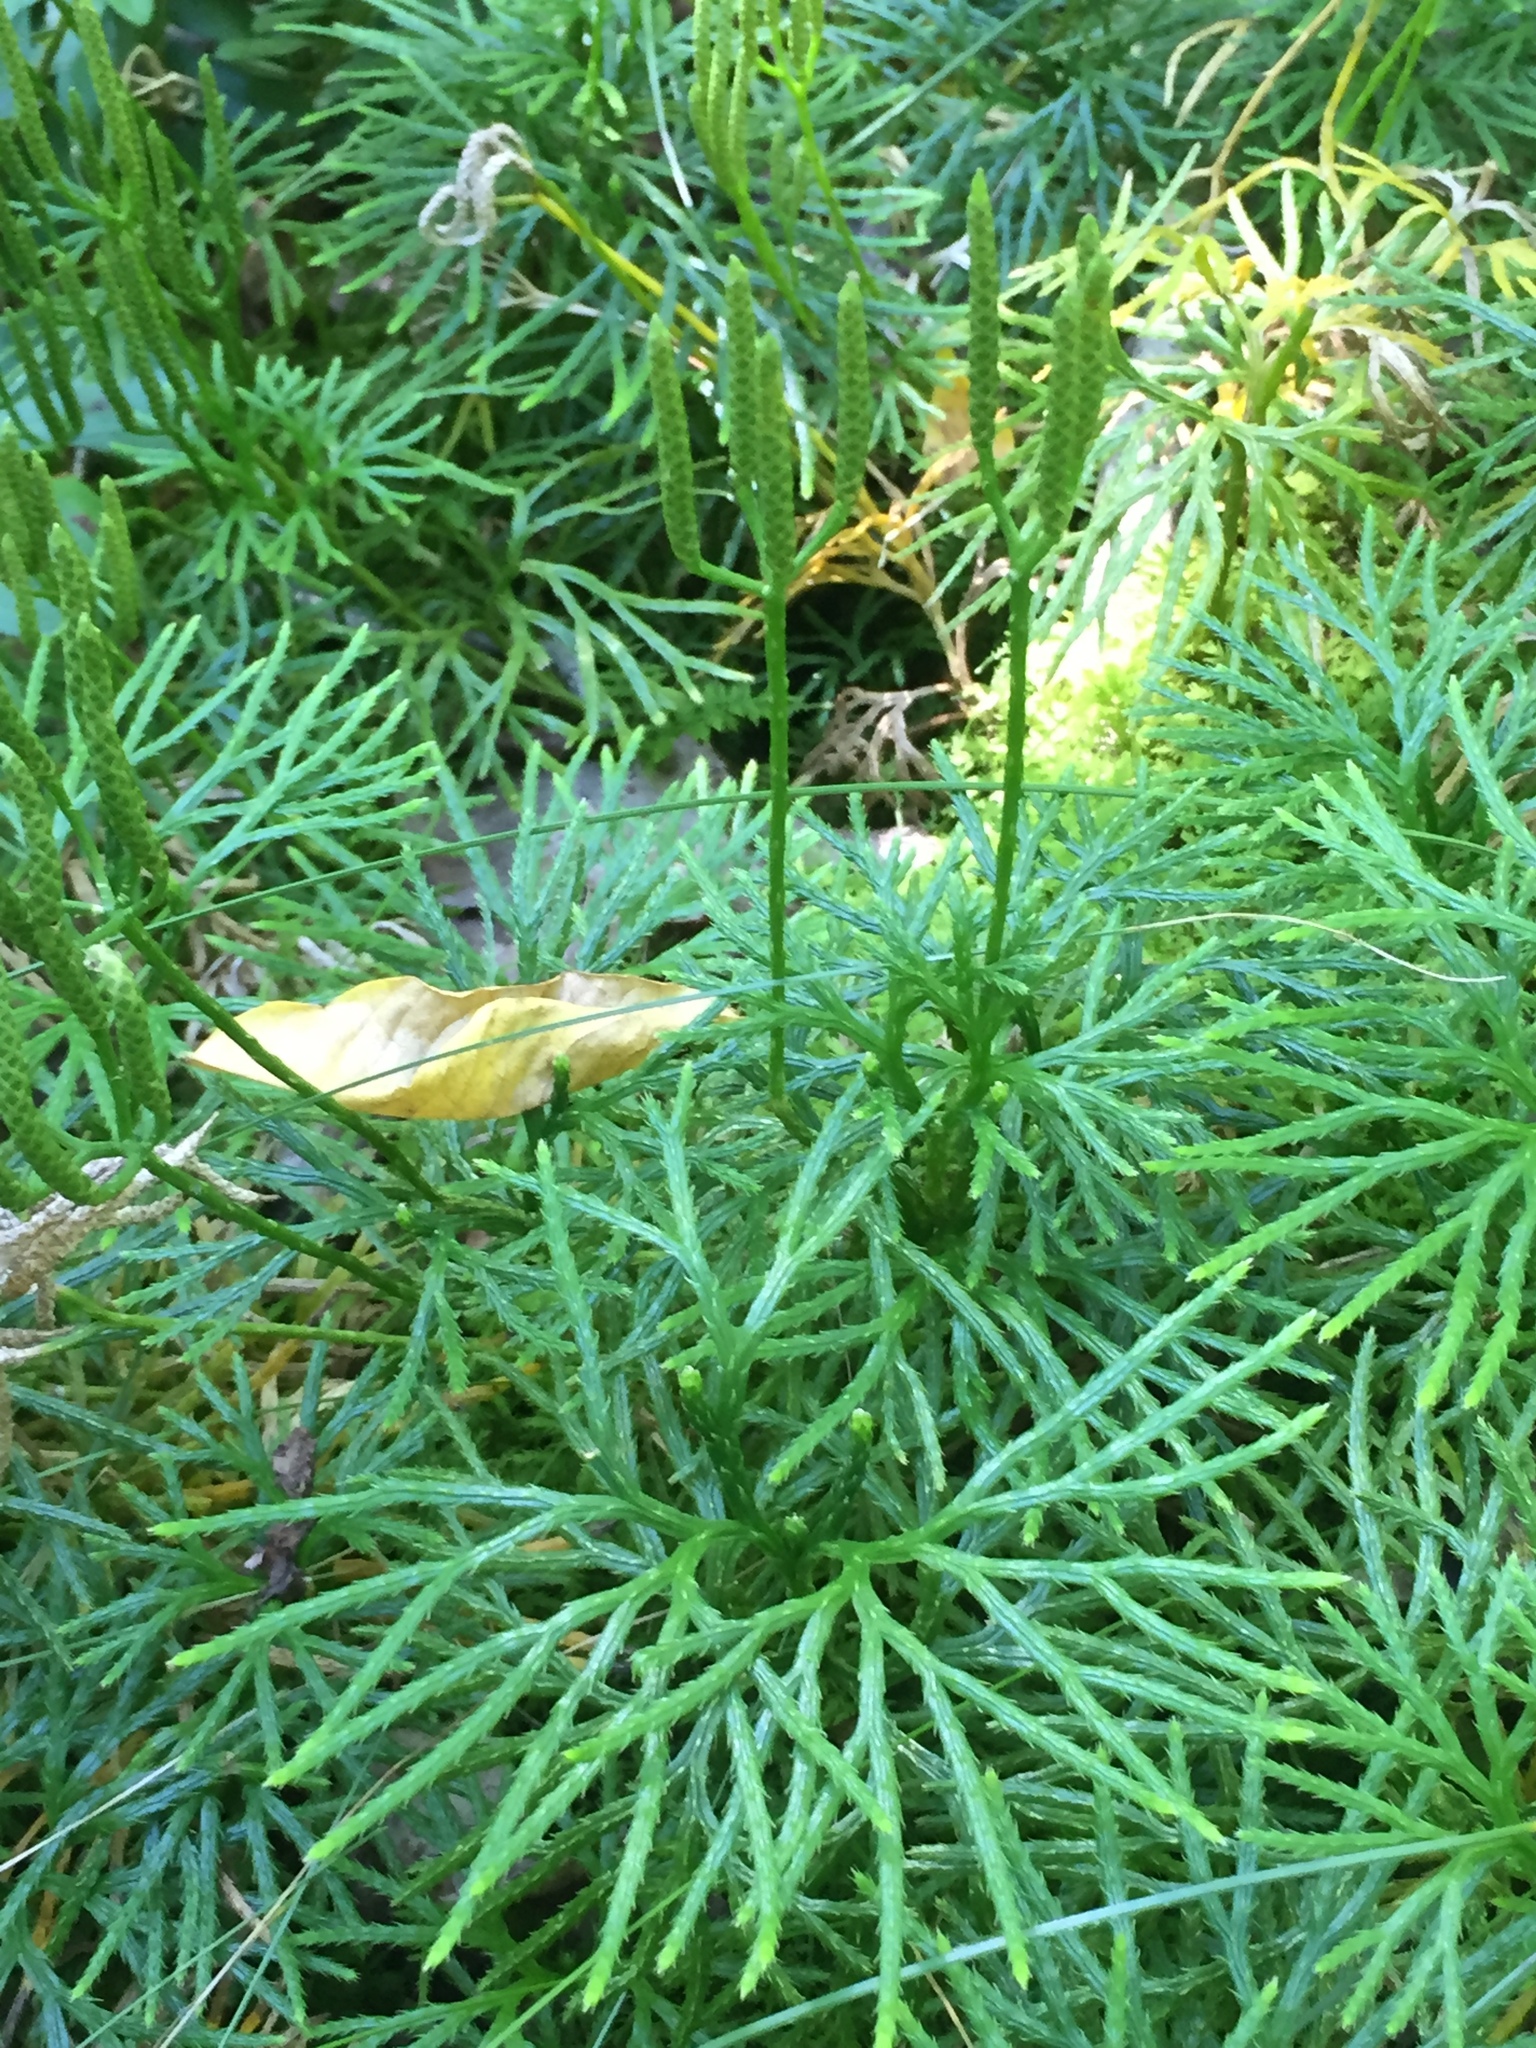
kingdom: Plantae
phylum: Tracheophyta
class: Lycopodiopsida
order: Lycopodiales
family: Lycopodiaceae
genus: Diphasiastrum
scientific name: Diphasiastrum digitatum
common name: Southern running-pine
